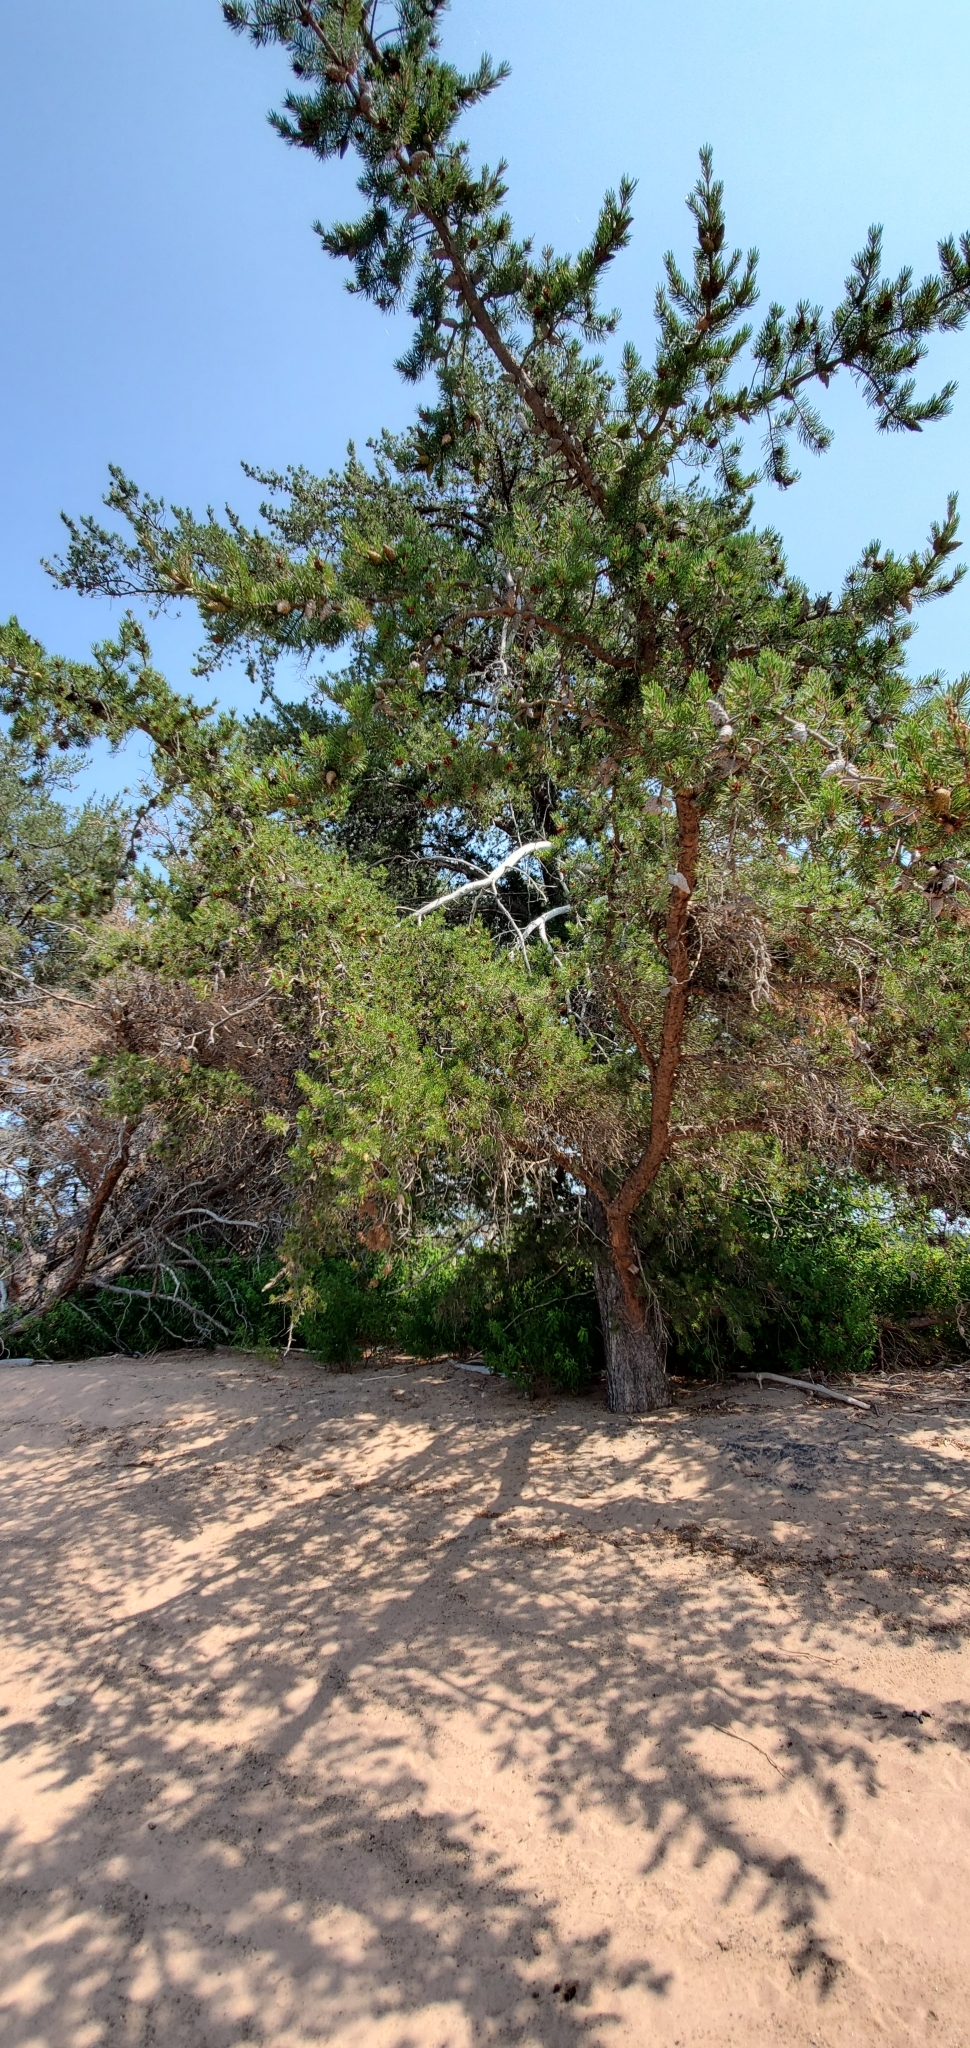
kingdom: Plantae
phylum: Tracheophyta
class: Pinopsida
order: Pinales
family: Pinaceae
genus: Pinus
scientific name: Pinus banksiana
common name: Jack pine
